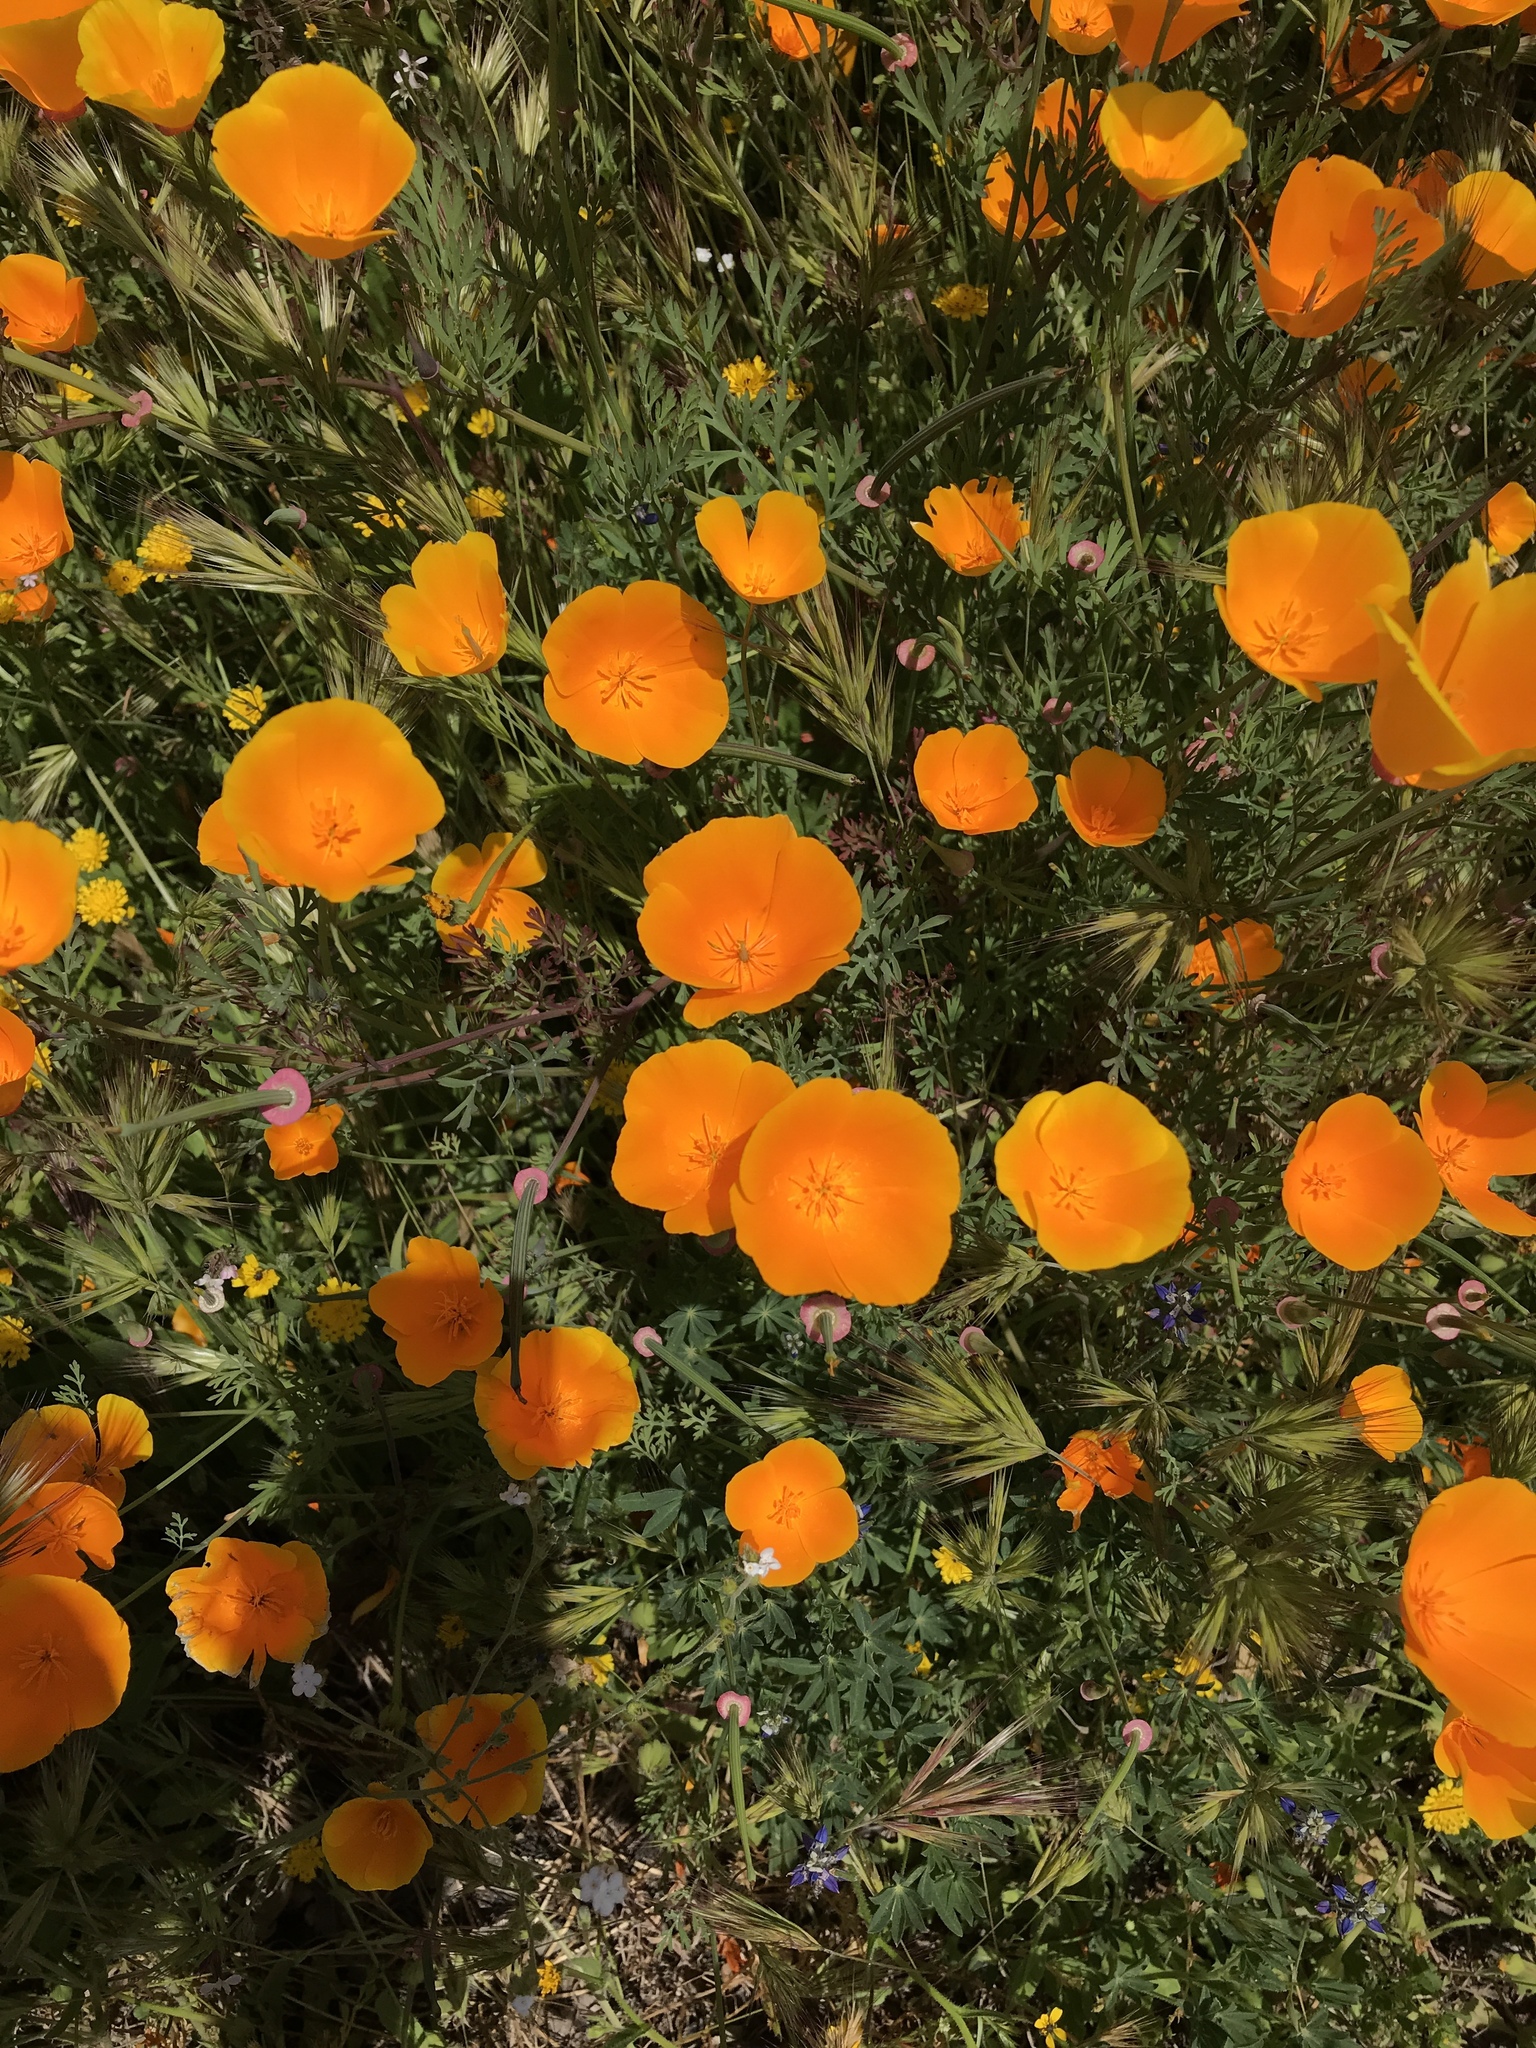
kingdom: Plantae
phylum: Tracheophyta
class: Magnoliopsida
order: Ranunculales
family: Papaveraceae
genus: Eschscholzia
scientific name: Eschscholzia californica
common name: California poppy
